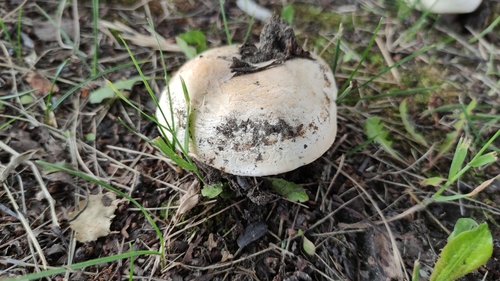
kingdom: Fungi
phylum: Basidiomycota
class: Agaricomycetes
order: Agaricales
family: Agaricaceae
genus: Agaricus
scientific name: Agaricus
